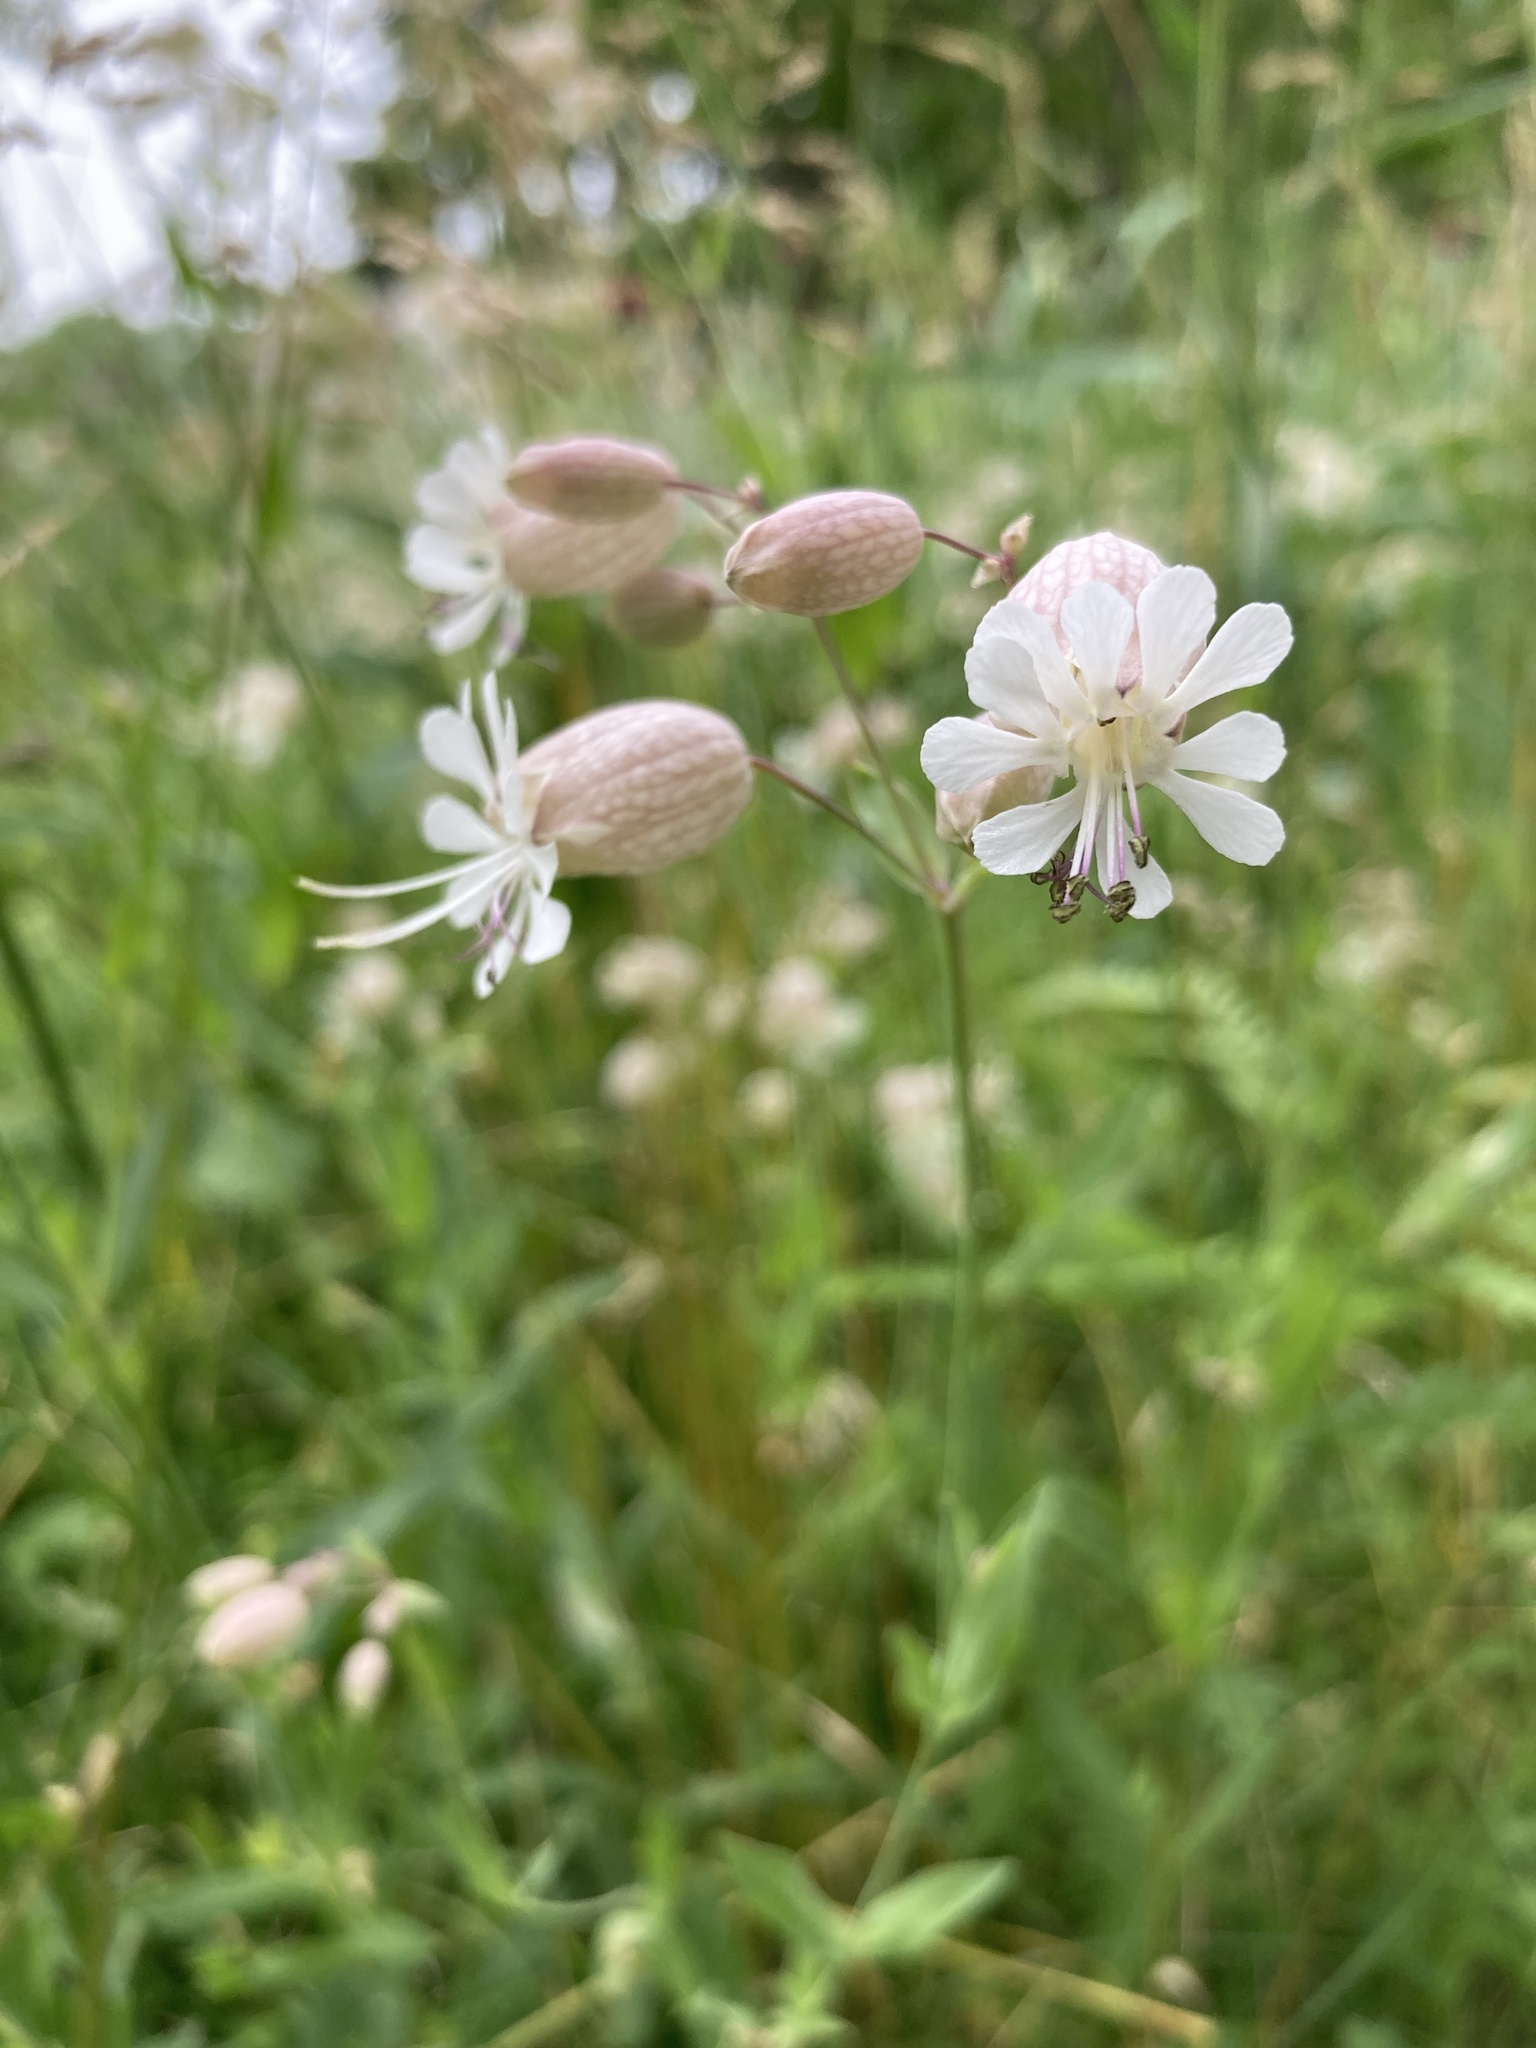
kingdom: Plantae
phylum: Tracheophyta
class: Magnoliopsida
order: Caryophyllales
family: Caryophyllaceae
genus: Silene
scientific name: Silene vulgaris
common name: Bladder campion
